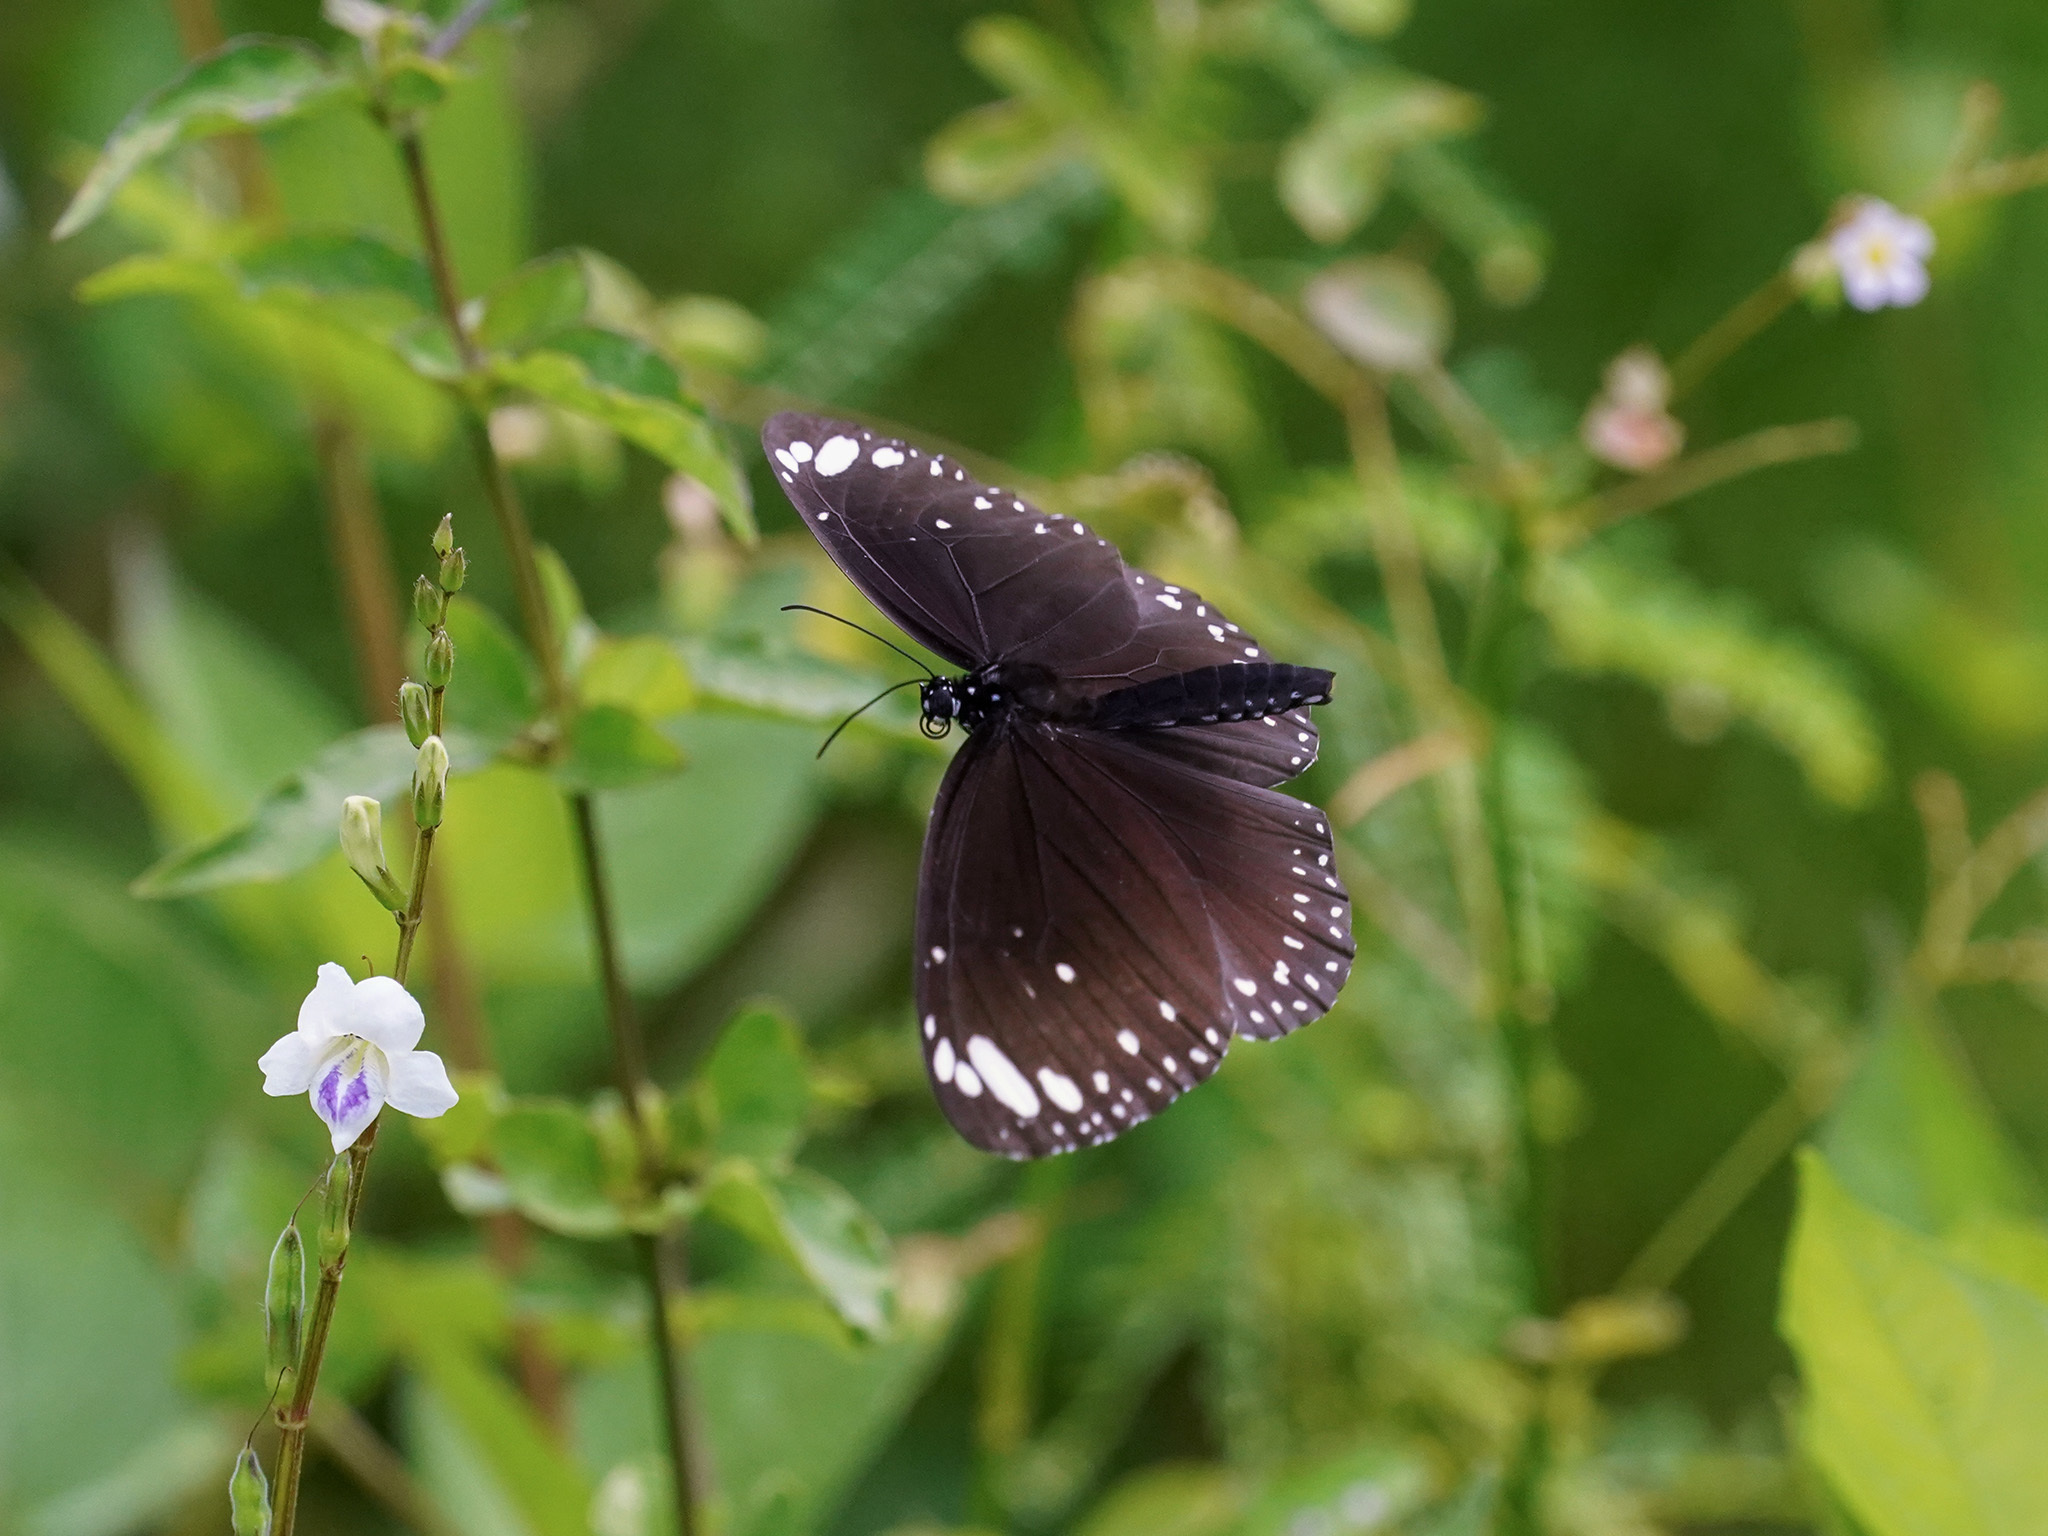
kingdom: Animalia
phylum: Arthropoda
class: Insecta
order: Lepidoptera
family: Nymphalidae
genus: Euploea
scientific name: Euploea crameri
